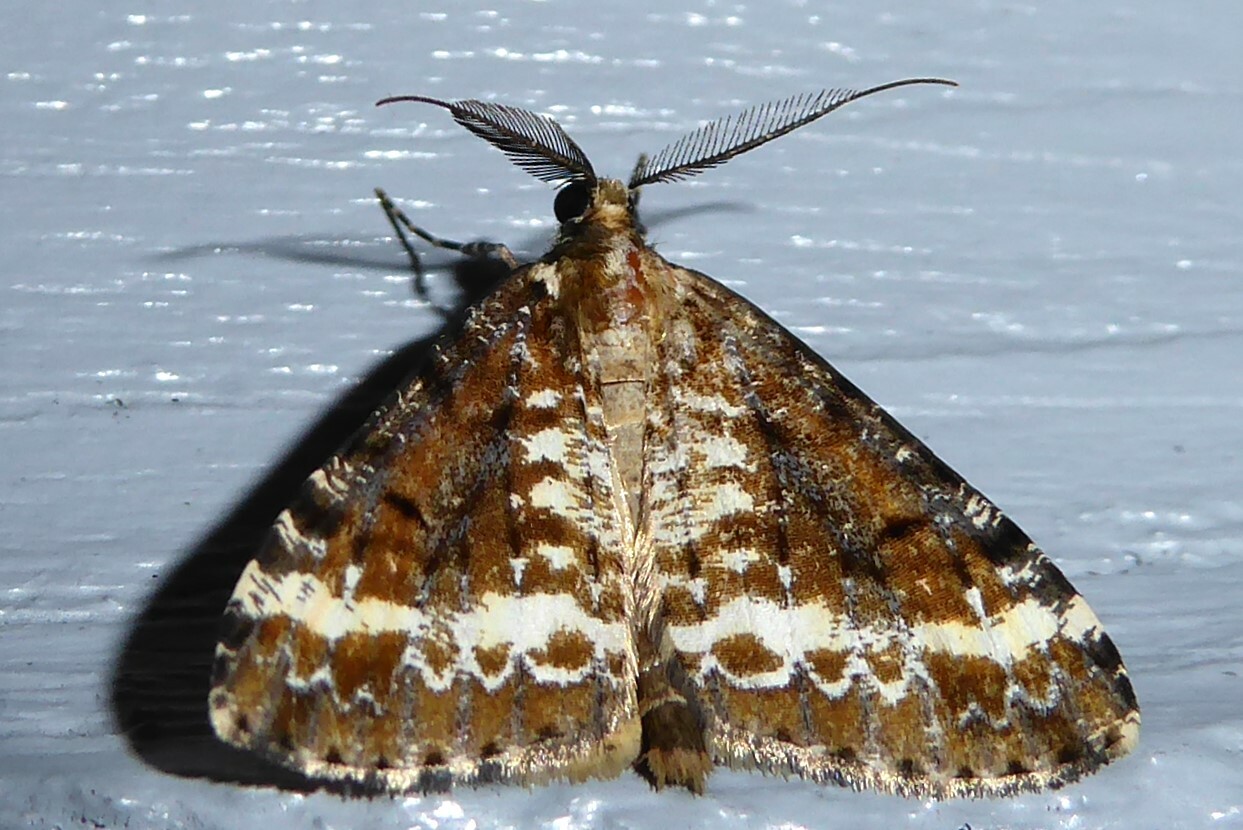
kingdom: Animalia
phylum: Arthropoda
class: Insecta
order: Lepidoptera
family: Geometridae
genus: Pseudocoremia
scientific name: Pseudocoremia leucelaea
